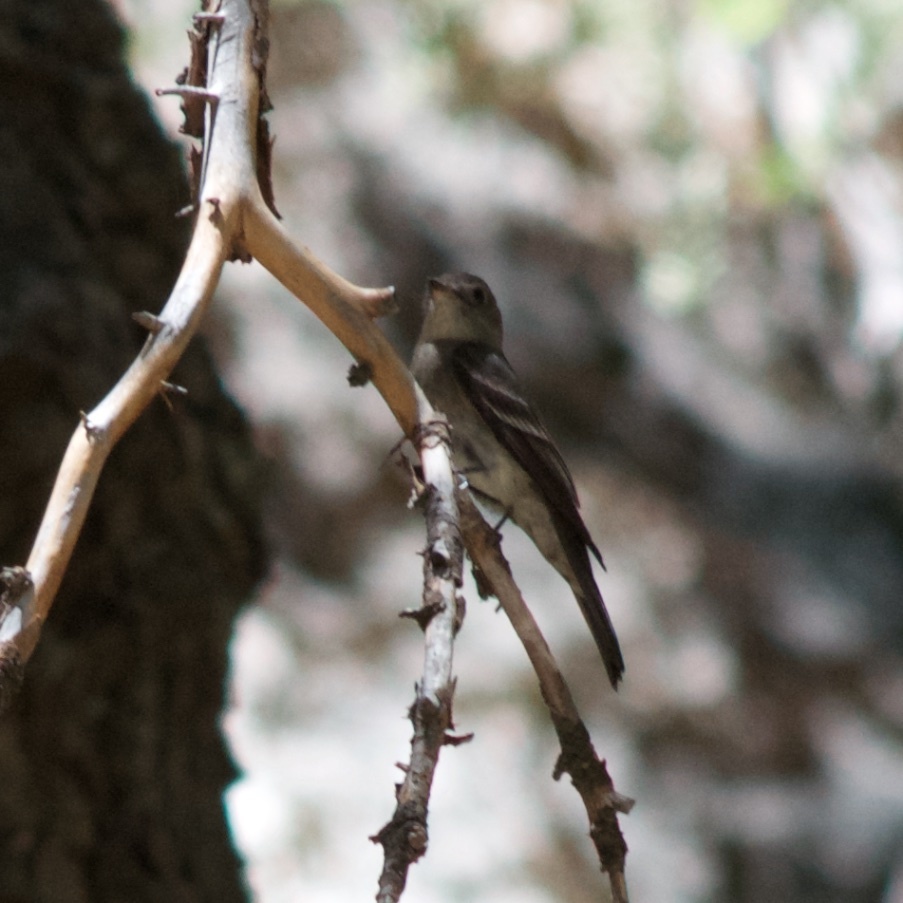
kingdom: Animalia
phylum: Chordata
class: Aves
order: Passeriformes
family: Tyrannidae
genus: Contopus
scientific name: Contopus sordidulus
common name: Western wood-pewee
